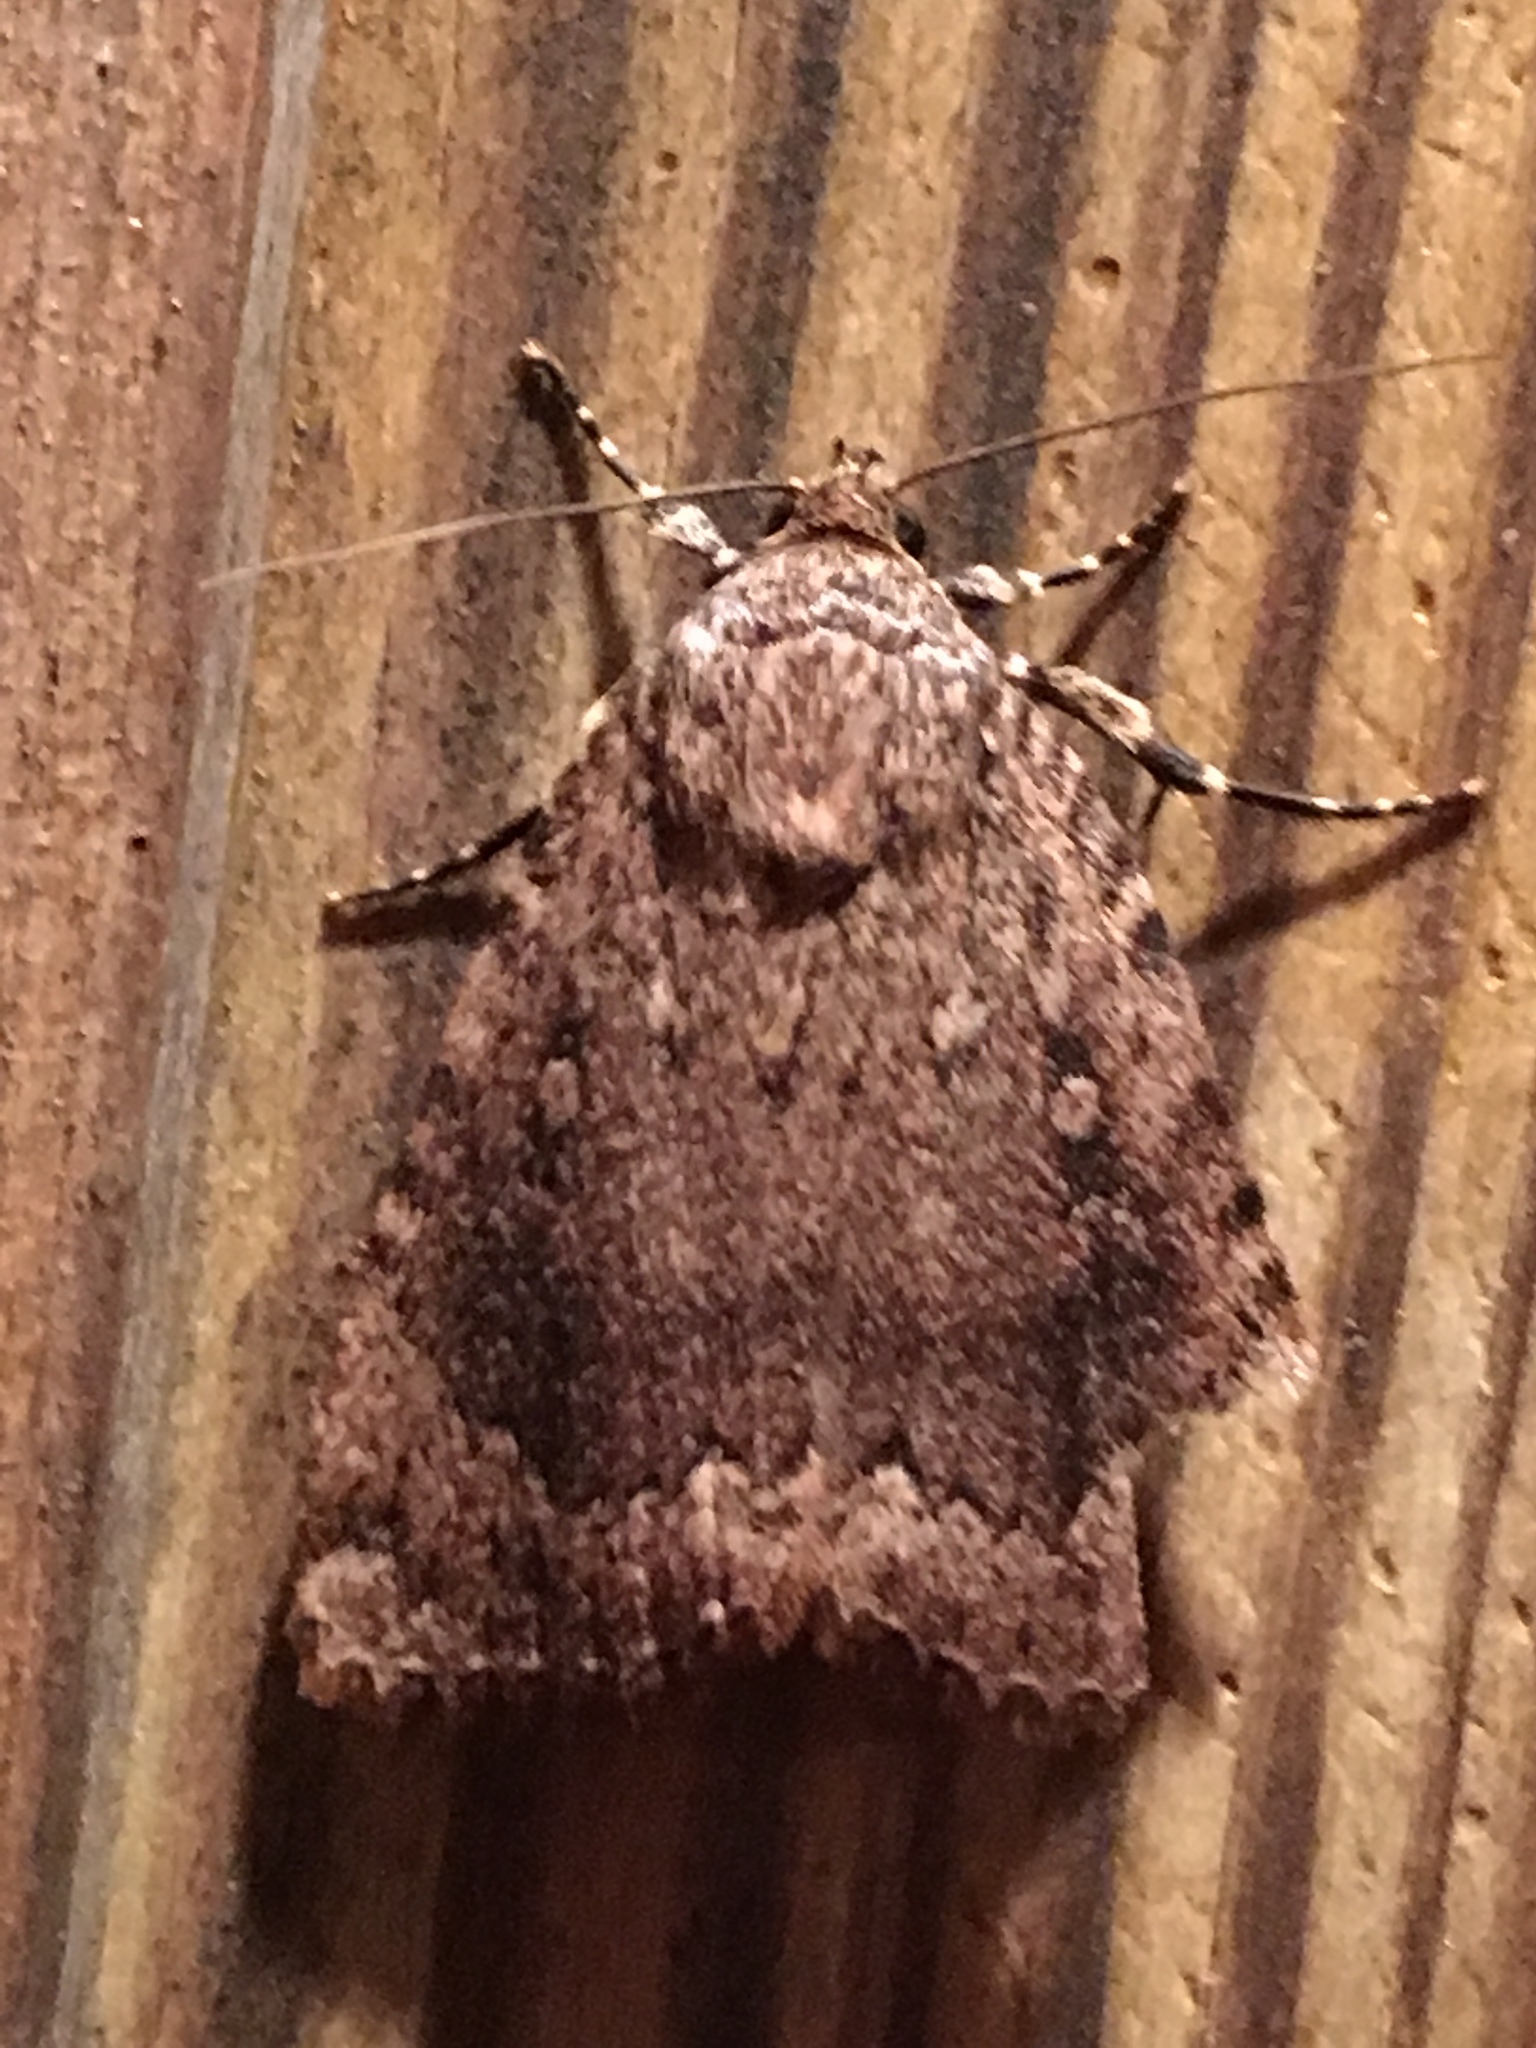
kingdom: Animalia
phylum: Arthropoda
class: Insecta
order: Lepidoptera
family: Noctuidae
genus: Amphipyra
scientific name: Amphipyra pyramidoides
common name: American copper underwing
